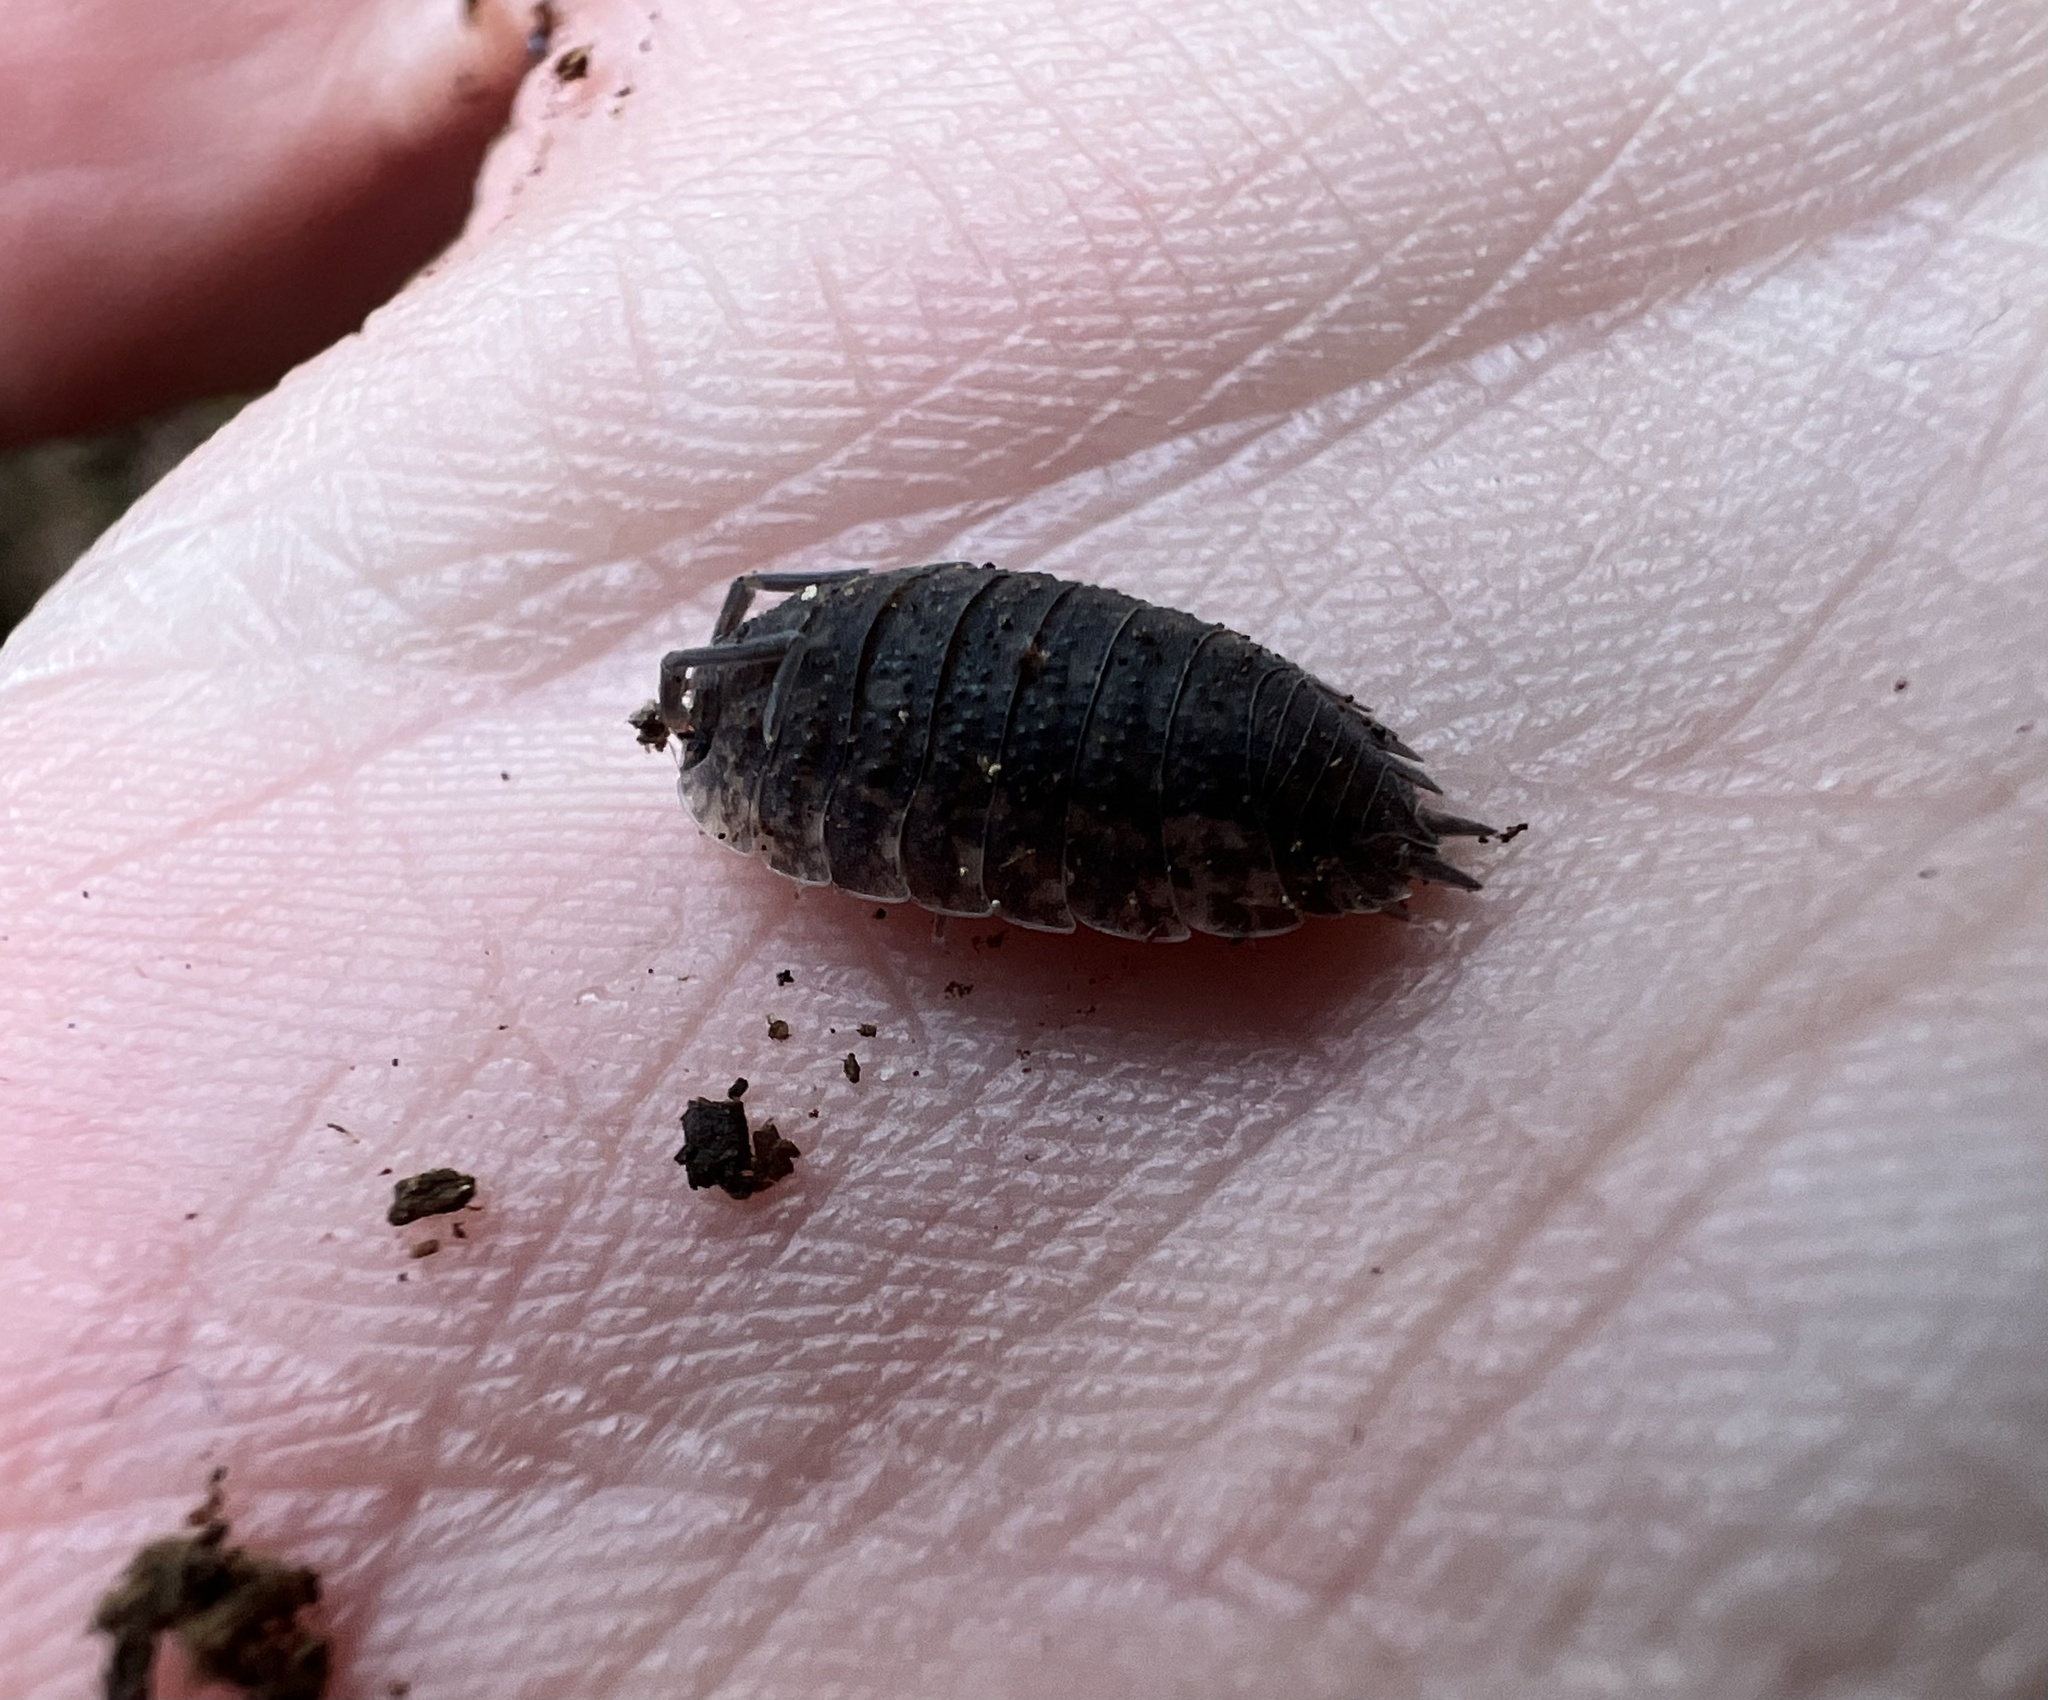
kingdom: Animalia
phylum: Arthropoda
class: Malacostraca
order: Isopoda
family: Porcellionidae
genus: Porcellio
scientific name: Porcellio scaber
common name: Common rough woodlouse
